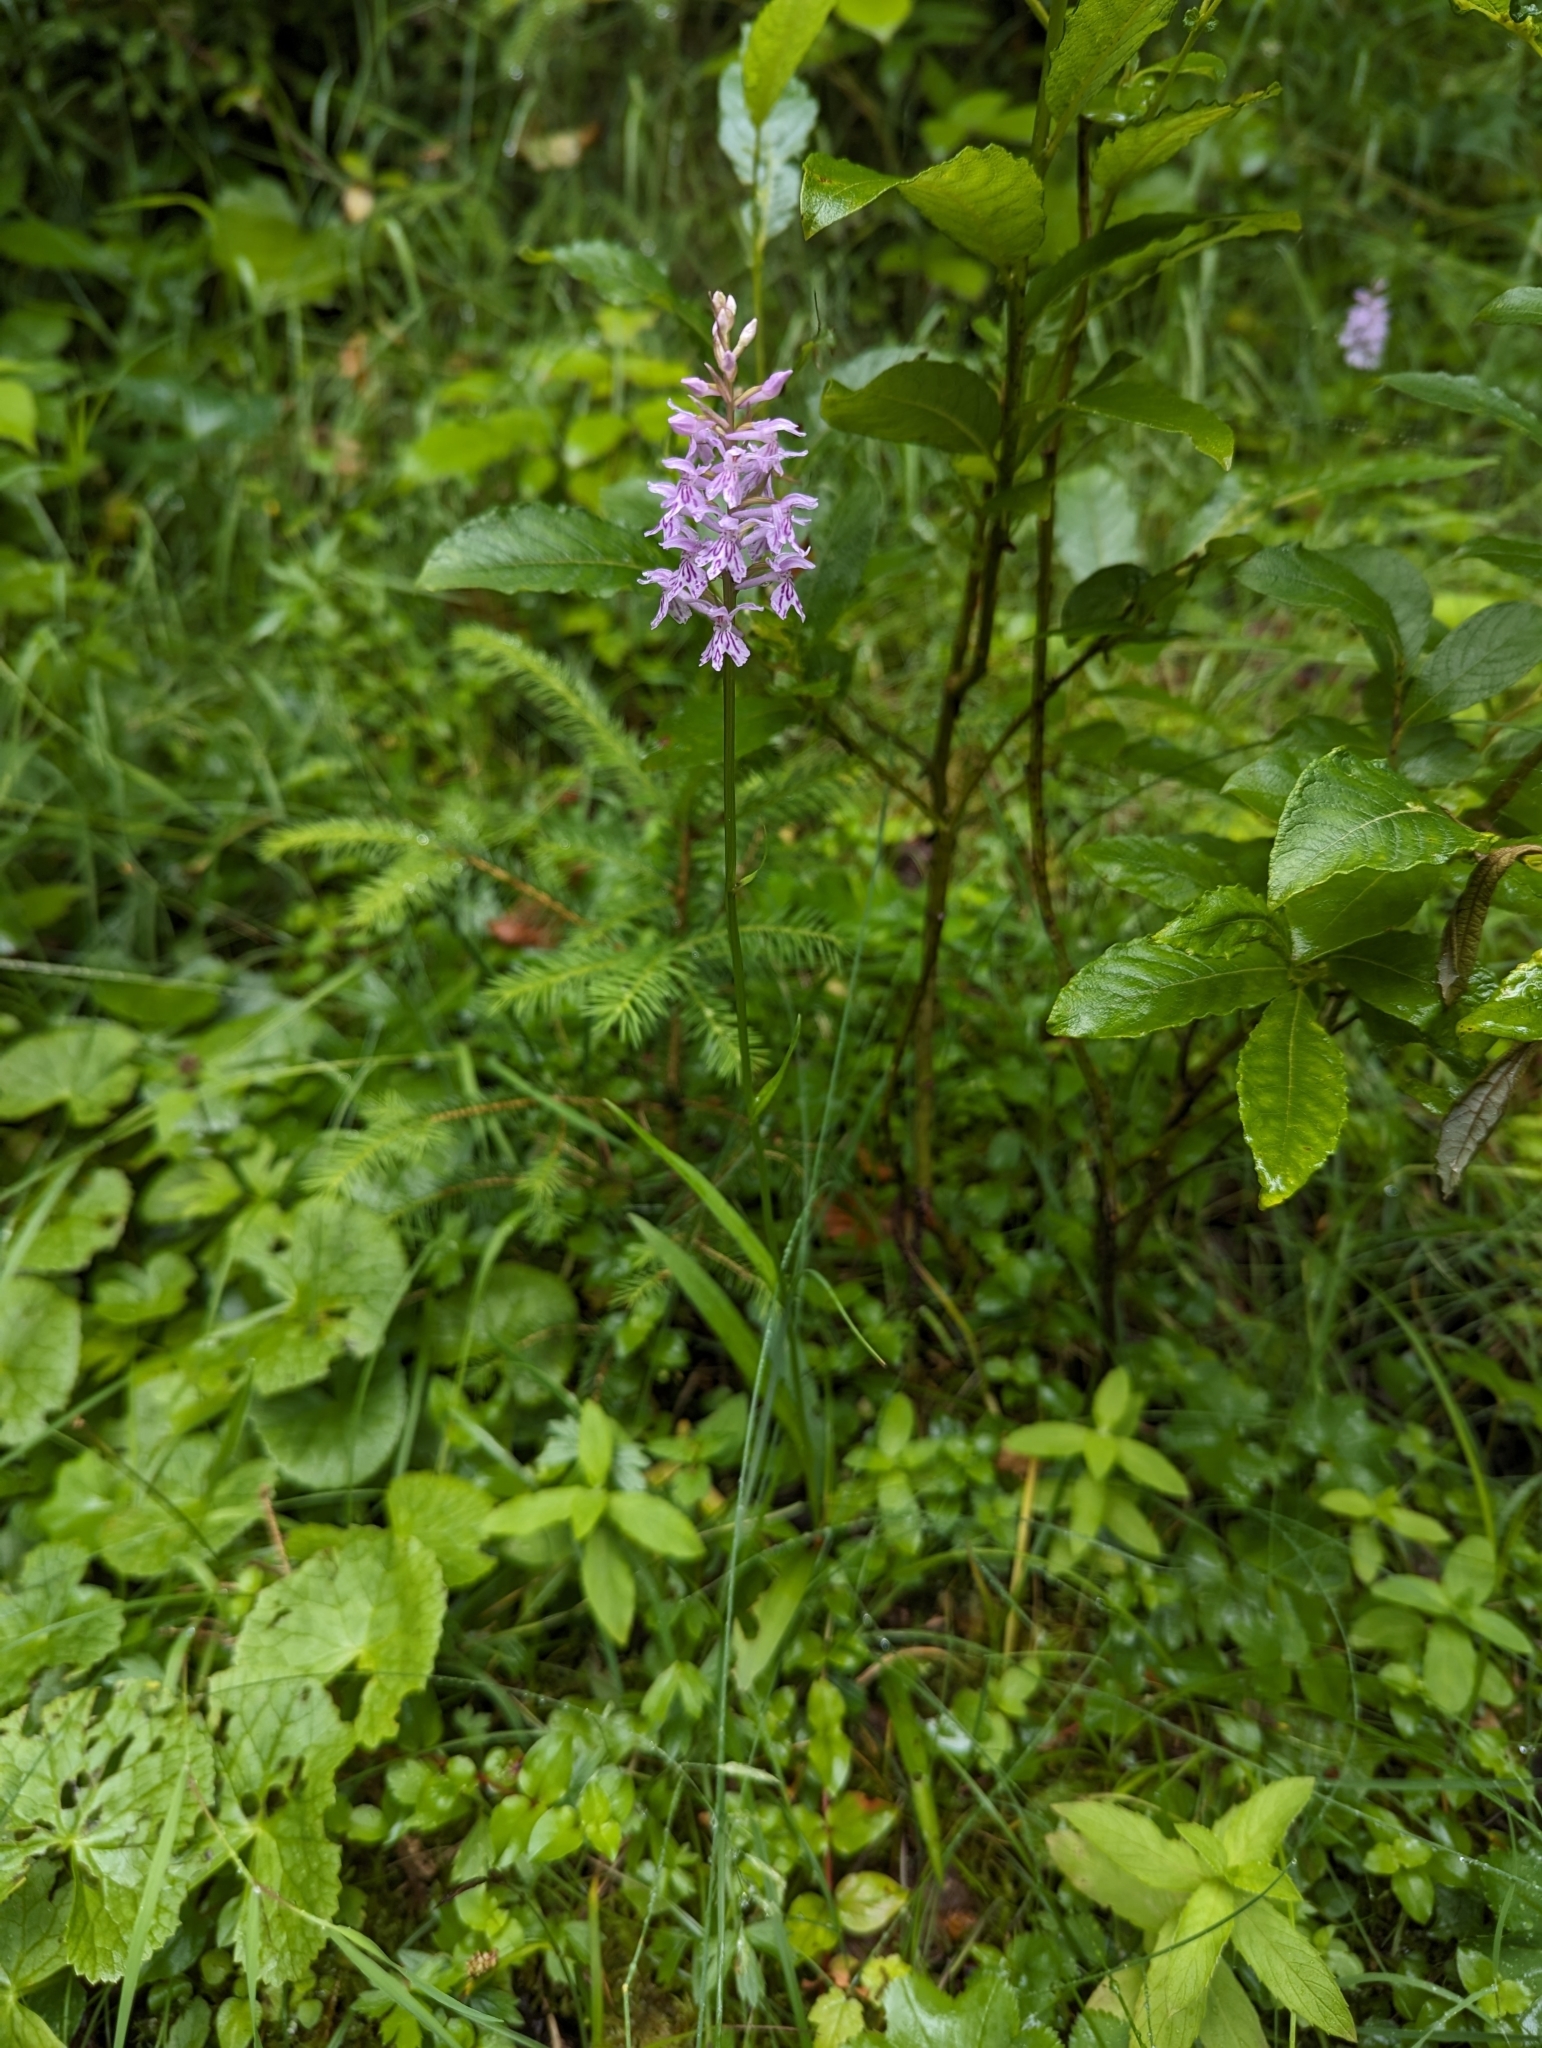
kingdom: Plantae
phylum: Tracheophyta
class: Liliopsida
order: Asparagales
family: Orchidaceae
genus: Dactylorhiza
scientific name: Dactylorhiza maculata
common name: Heath spotted-orchid
